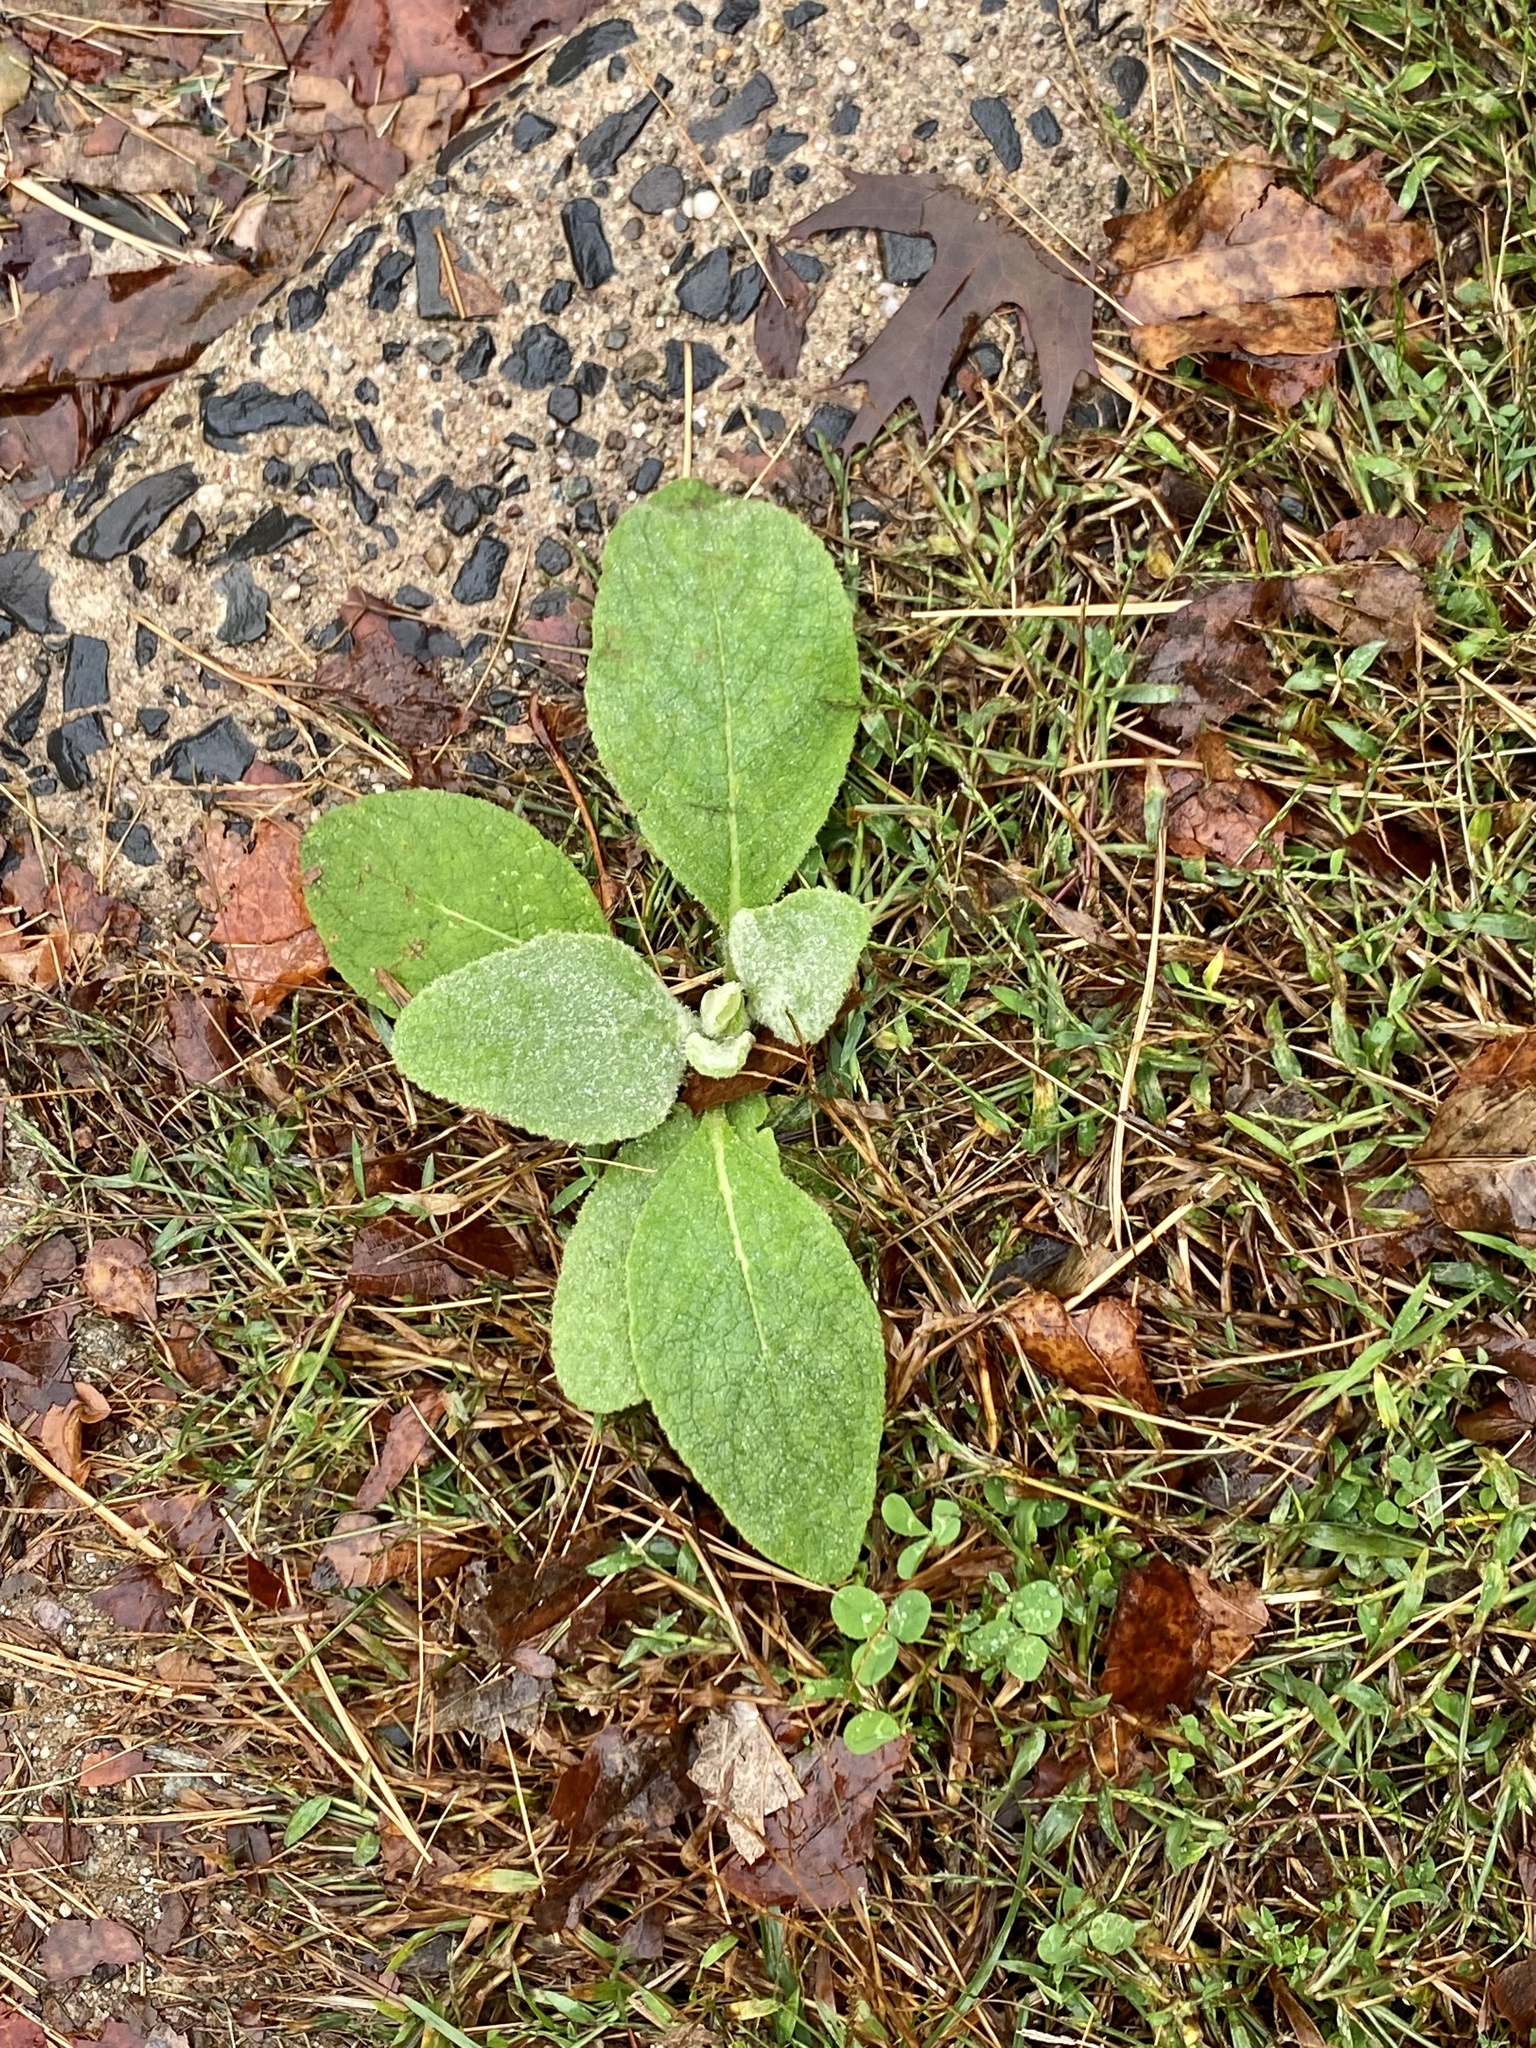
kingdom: Plantae
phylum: Tracheophyta
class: Magnoliopsida
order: Lamiales
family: Scrophulariaceae
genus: Verbascum
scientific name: Verbascum thapsus
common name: Common mullein
